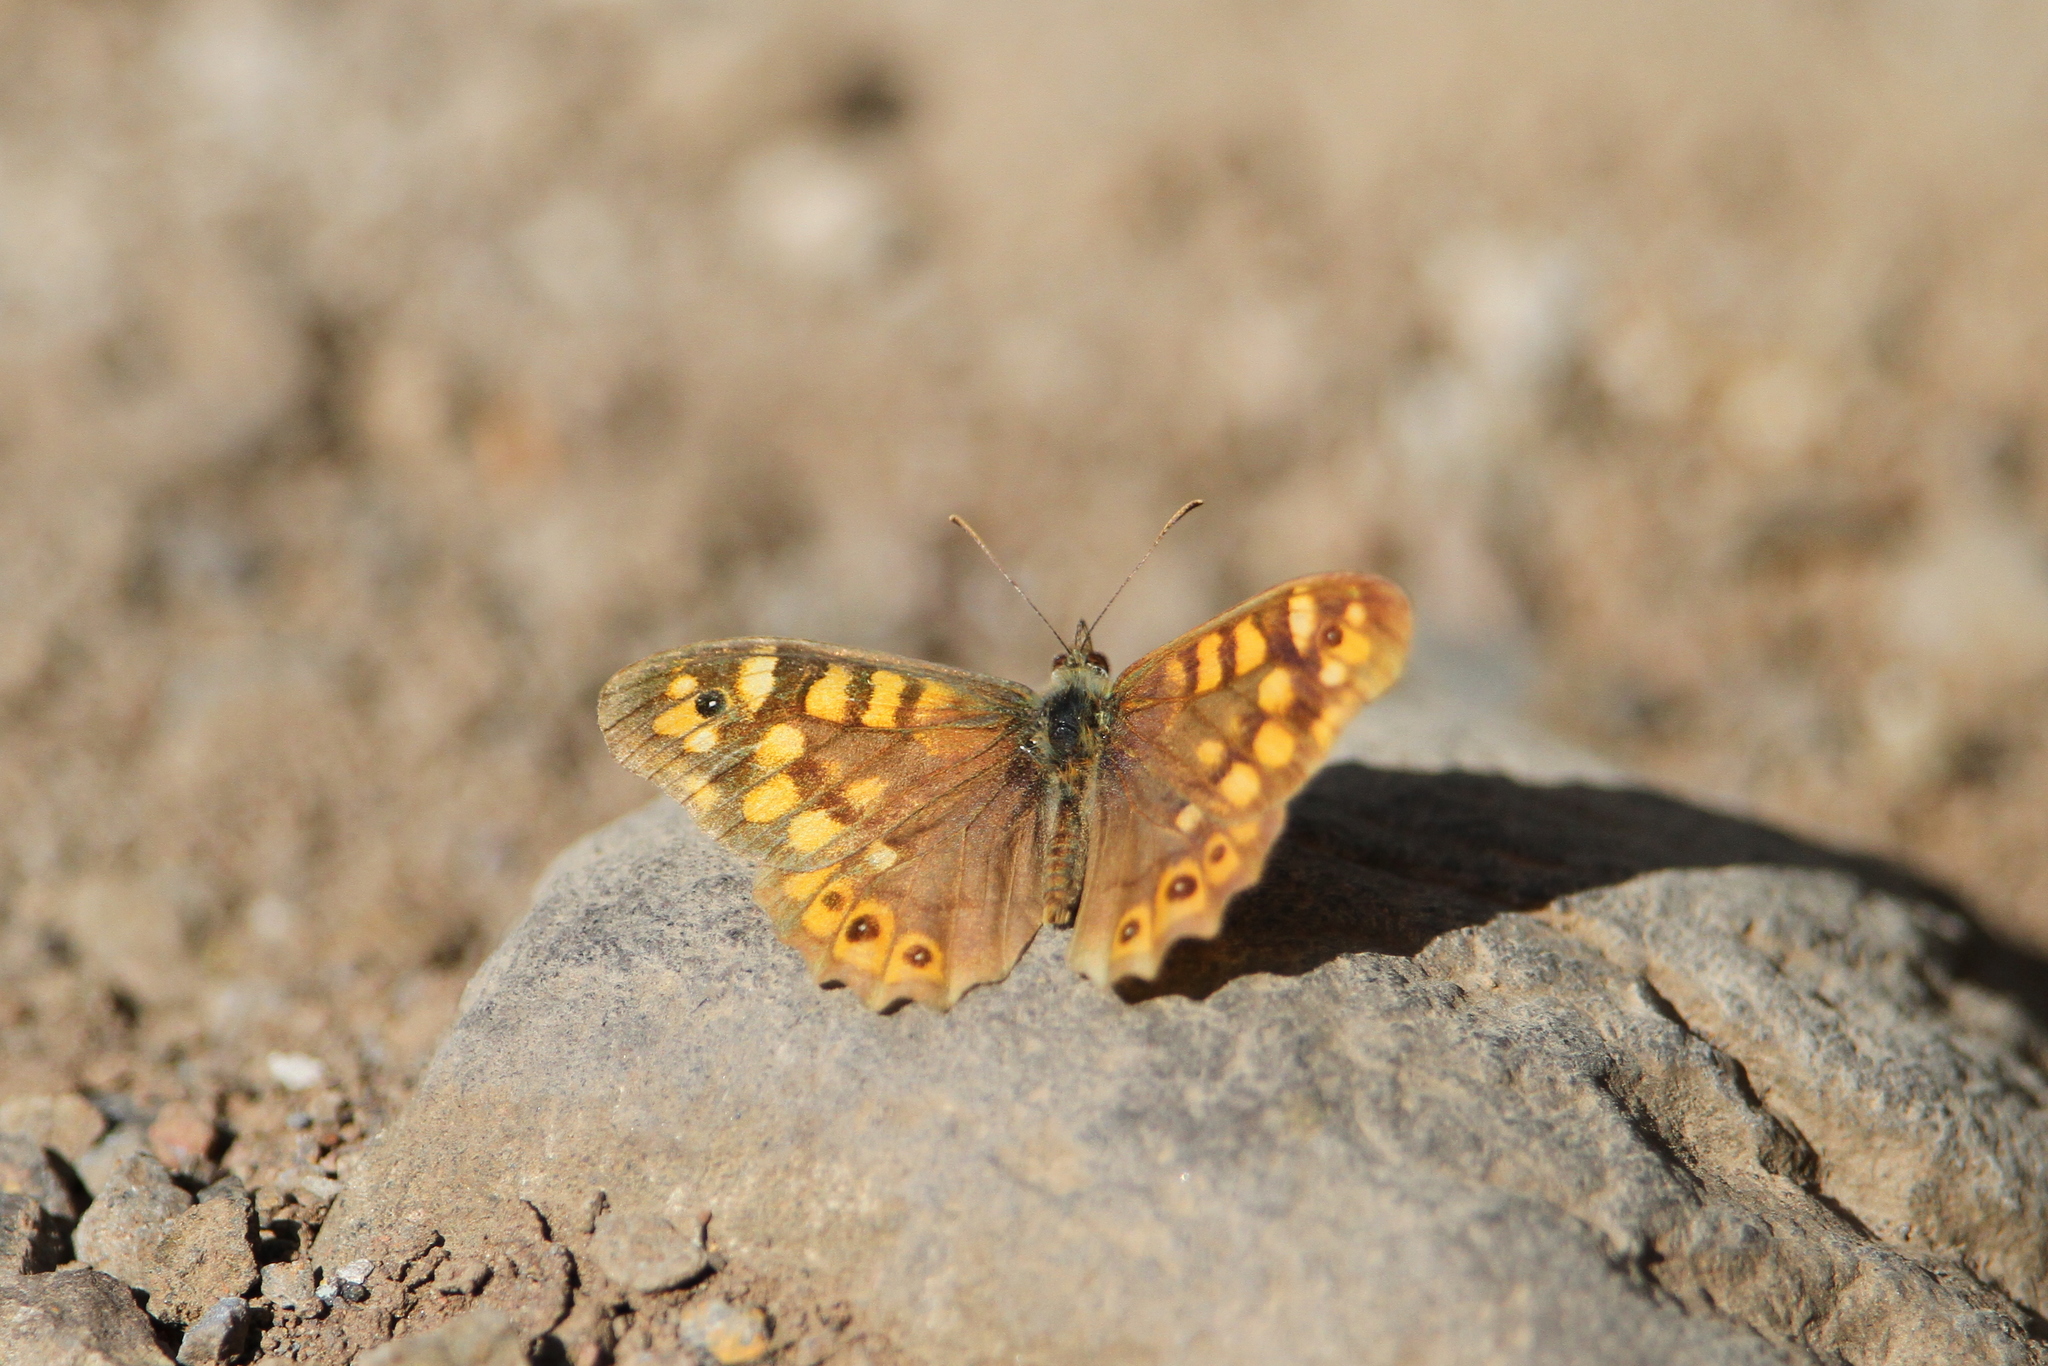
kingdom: Animalia
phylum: Arthropoda
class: Insecta
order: Lepidoptera
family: Nymphalidae
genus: Pararge
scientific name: Pararge aegeria
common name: Speckled wood
